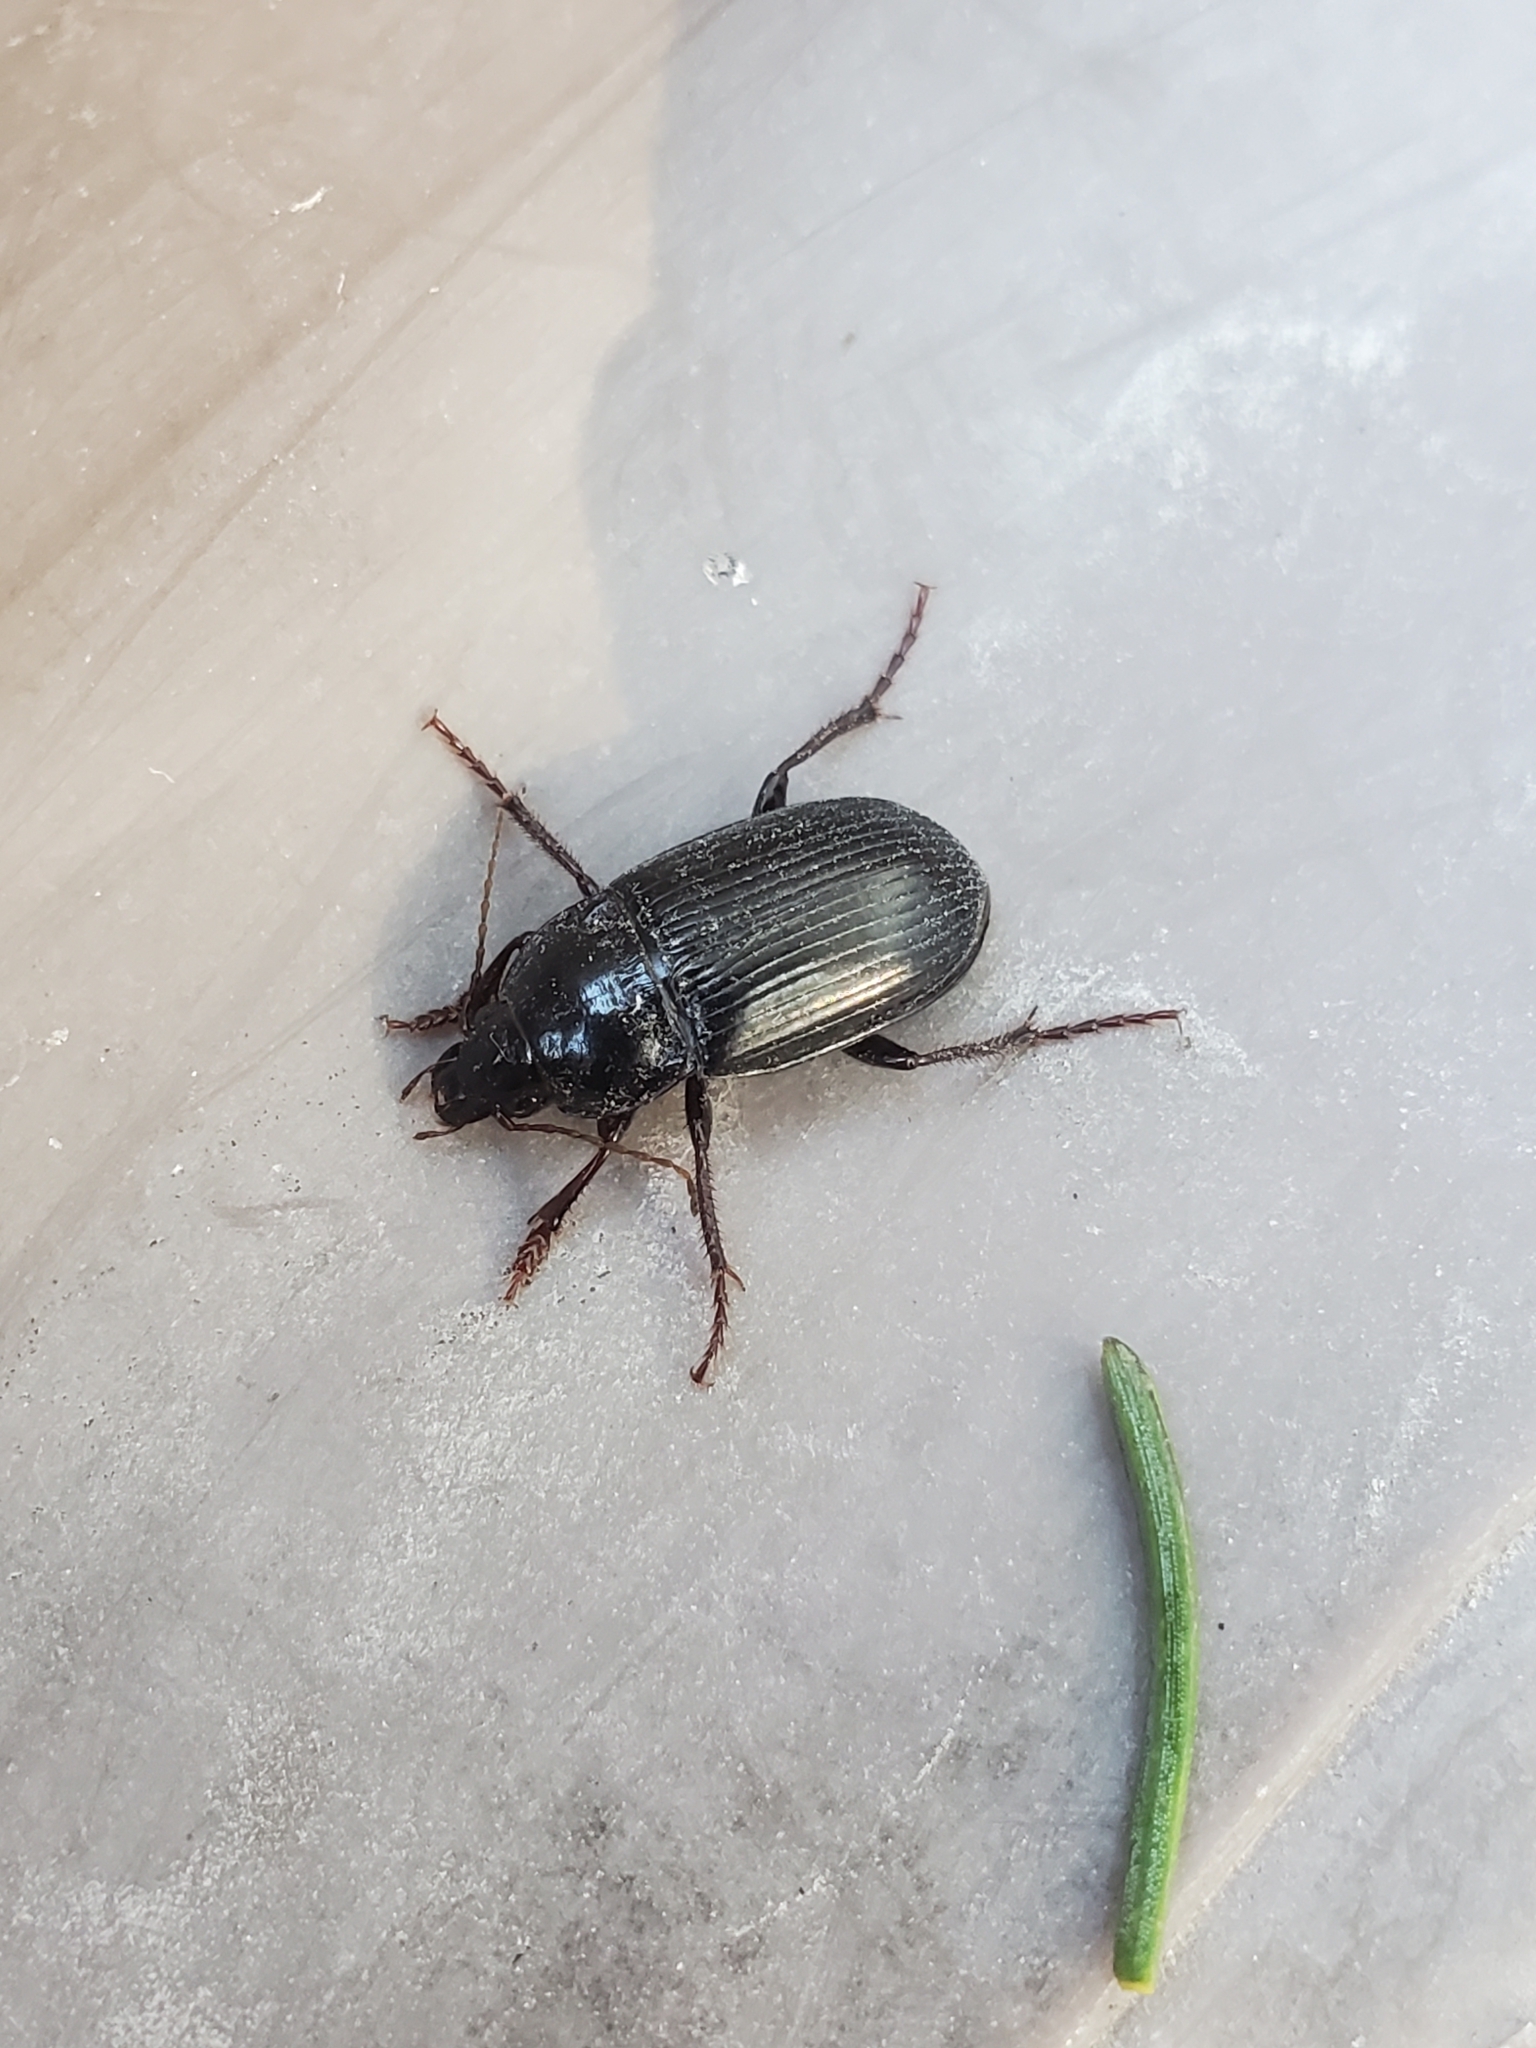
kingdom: Animalia
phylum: Arthropoda
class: Insecta
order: Coleoptera
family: Carabidae
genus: Amara
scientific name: Amara obesa
